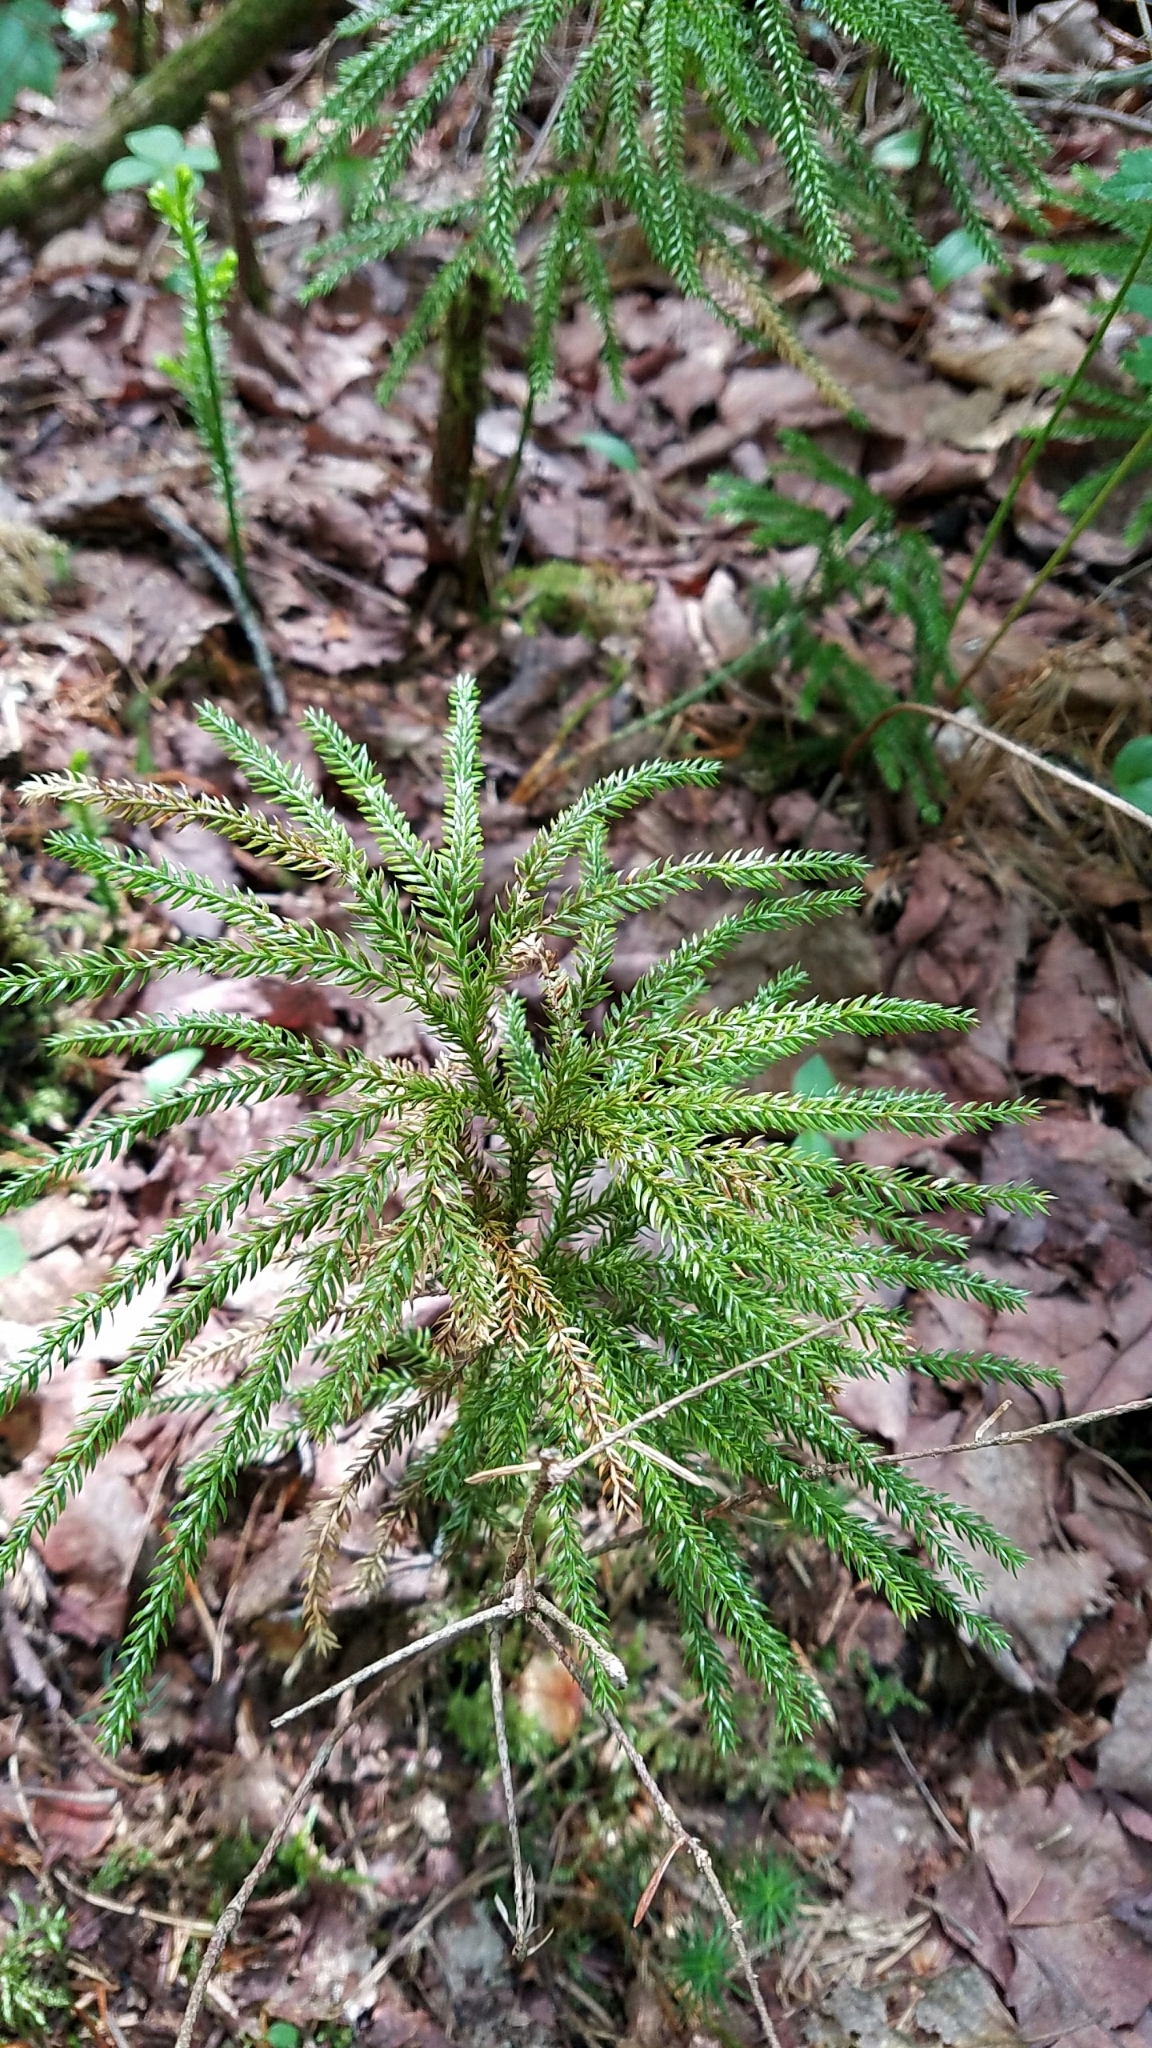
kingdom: Plantae
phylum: Tracheophyta
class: Lycopodiopsida
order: Lycopodiales
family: Lycopodiaceae
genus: Dendrolycopodium
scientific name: Dendrolycopodium obscurum
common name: Common ground-pine
